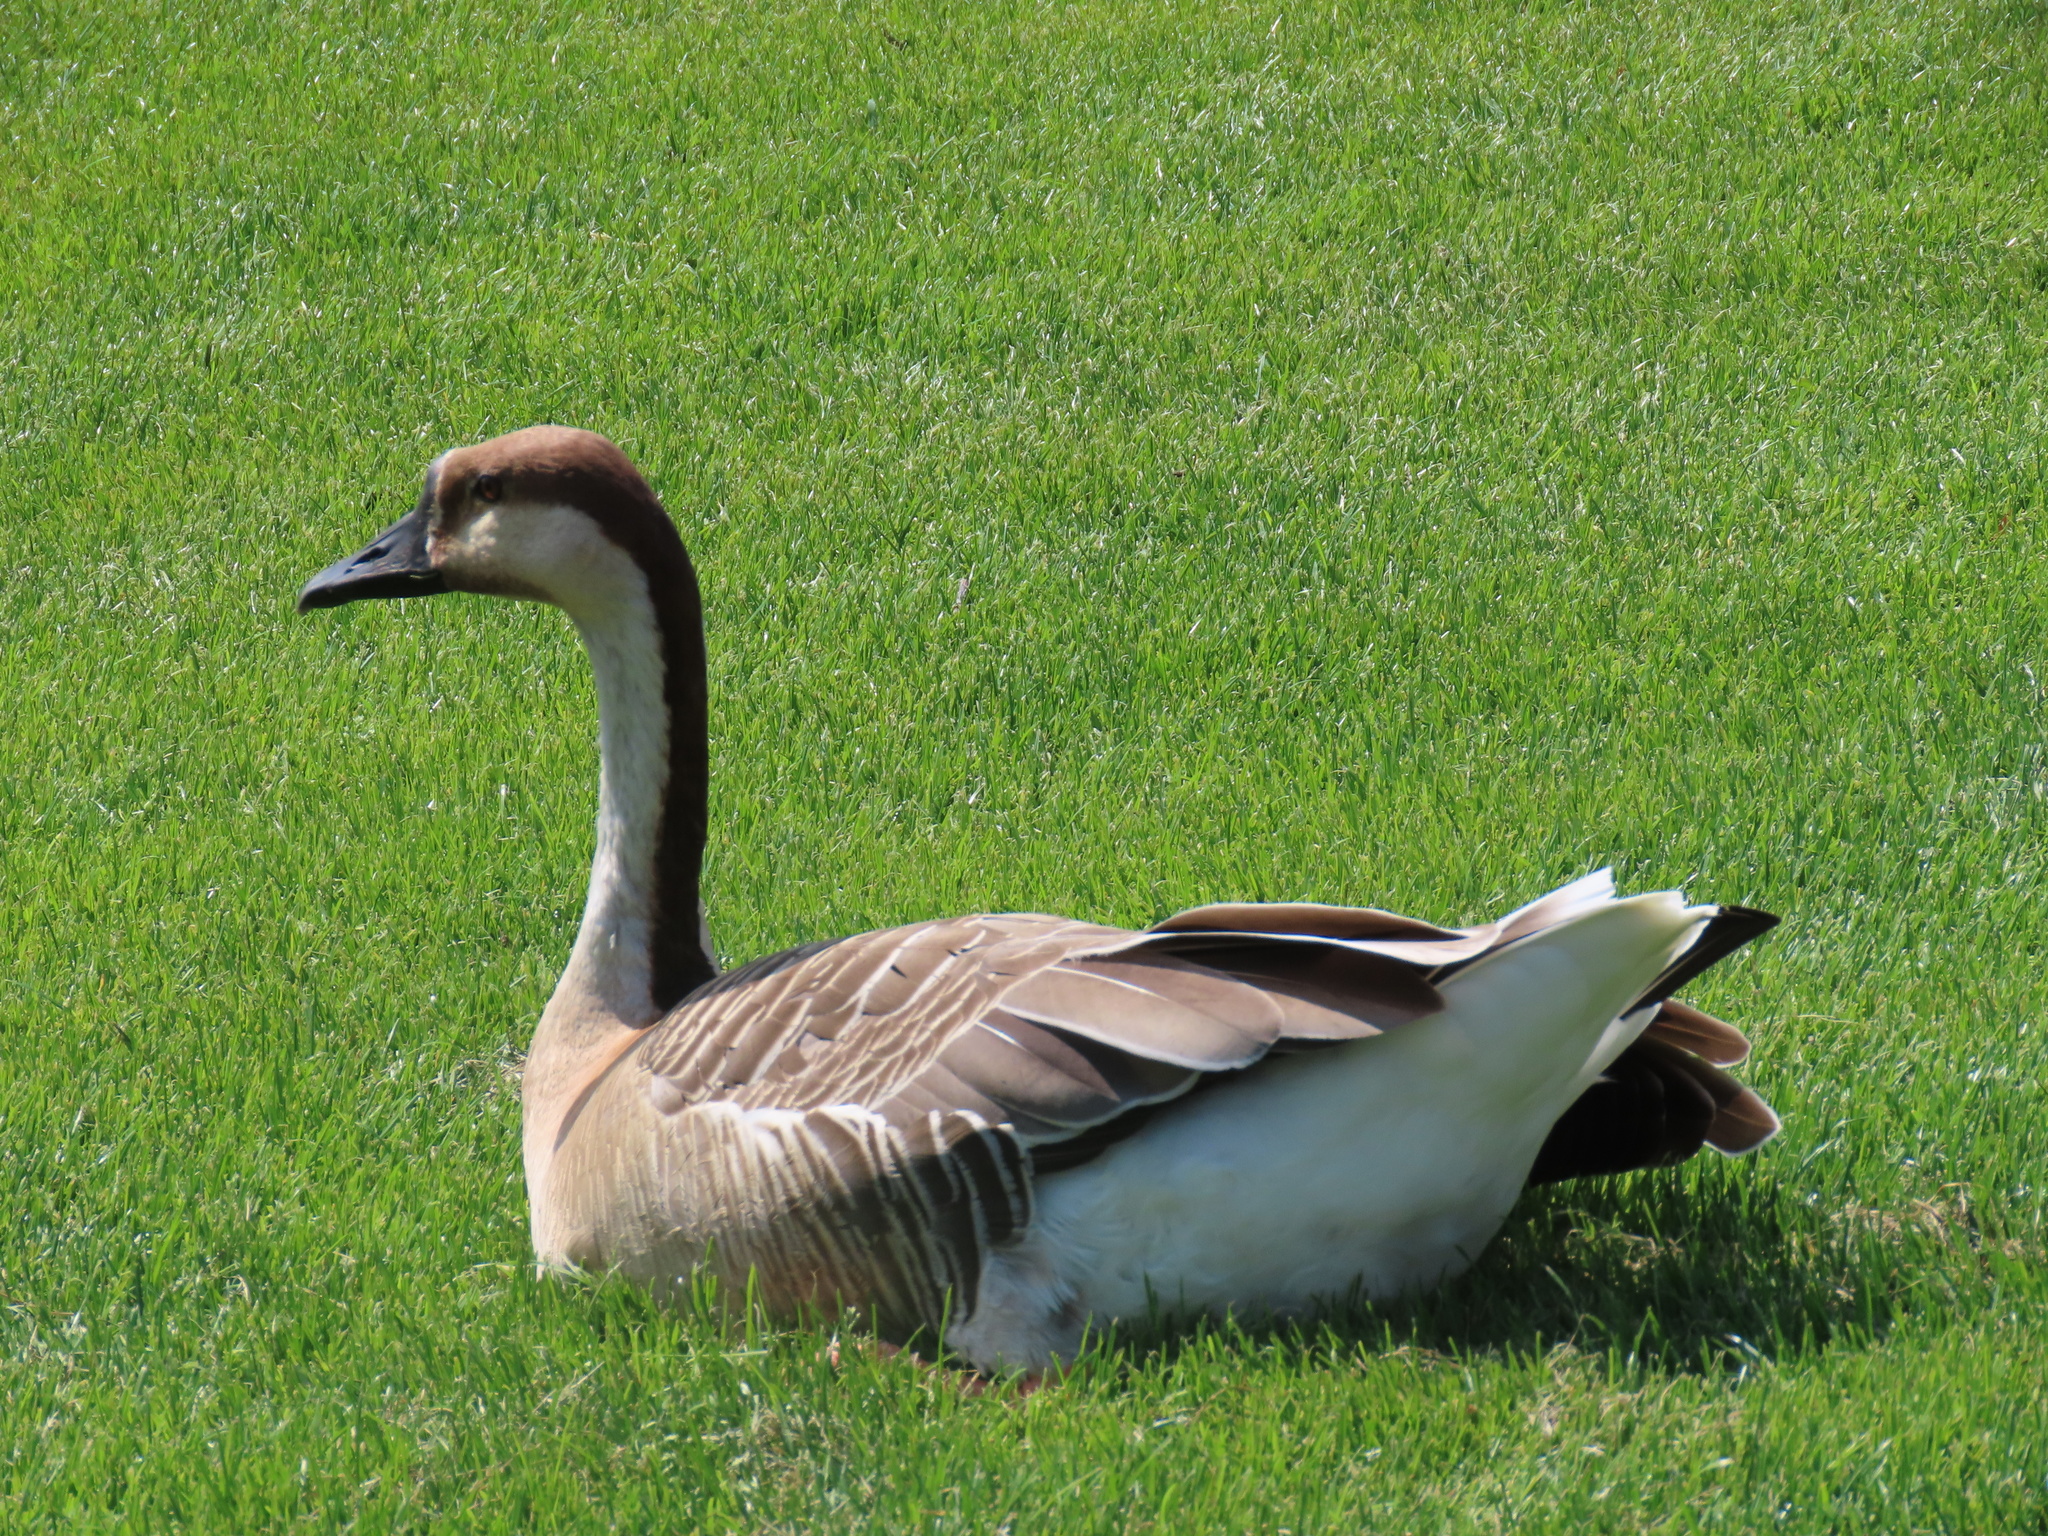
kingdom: Animalia
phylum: Chordata
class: Aves
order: Anseriformes
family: Anatidae
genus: Anser
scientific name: Anser cygnoides
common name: Swan goose
